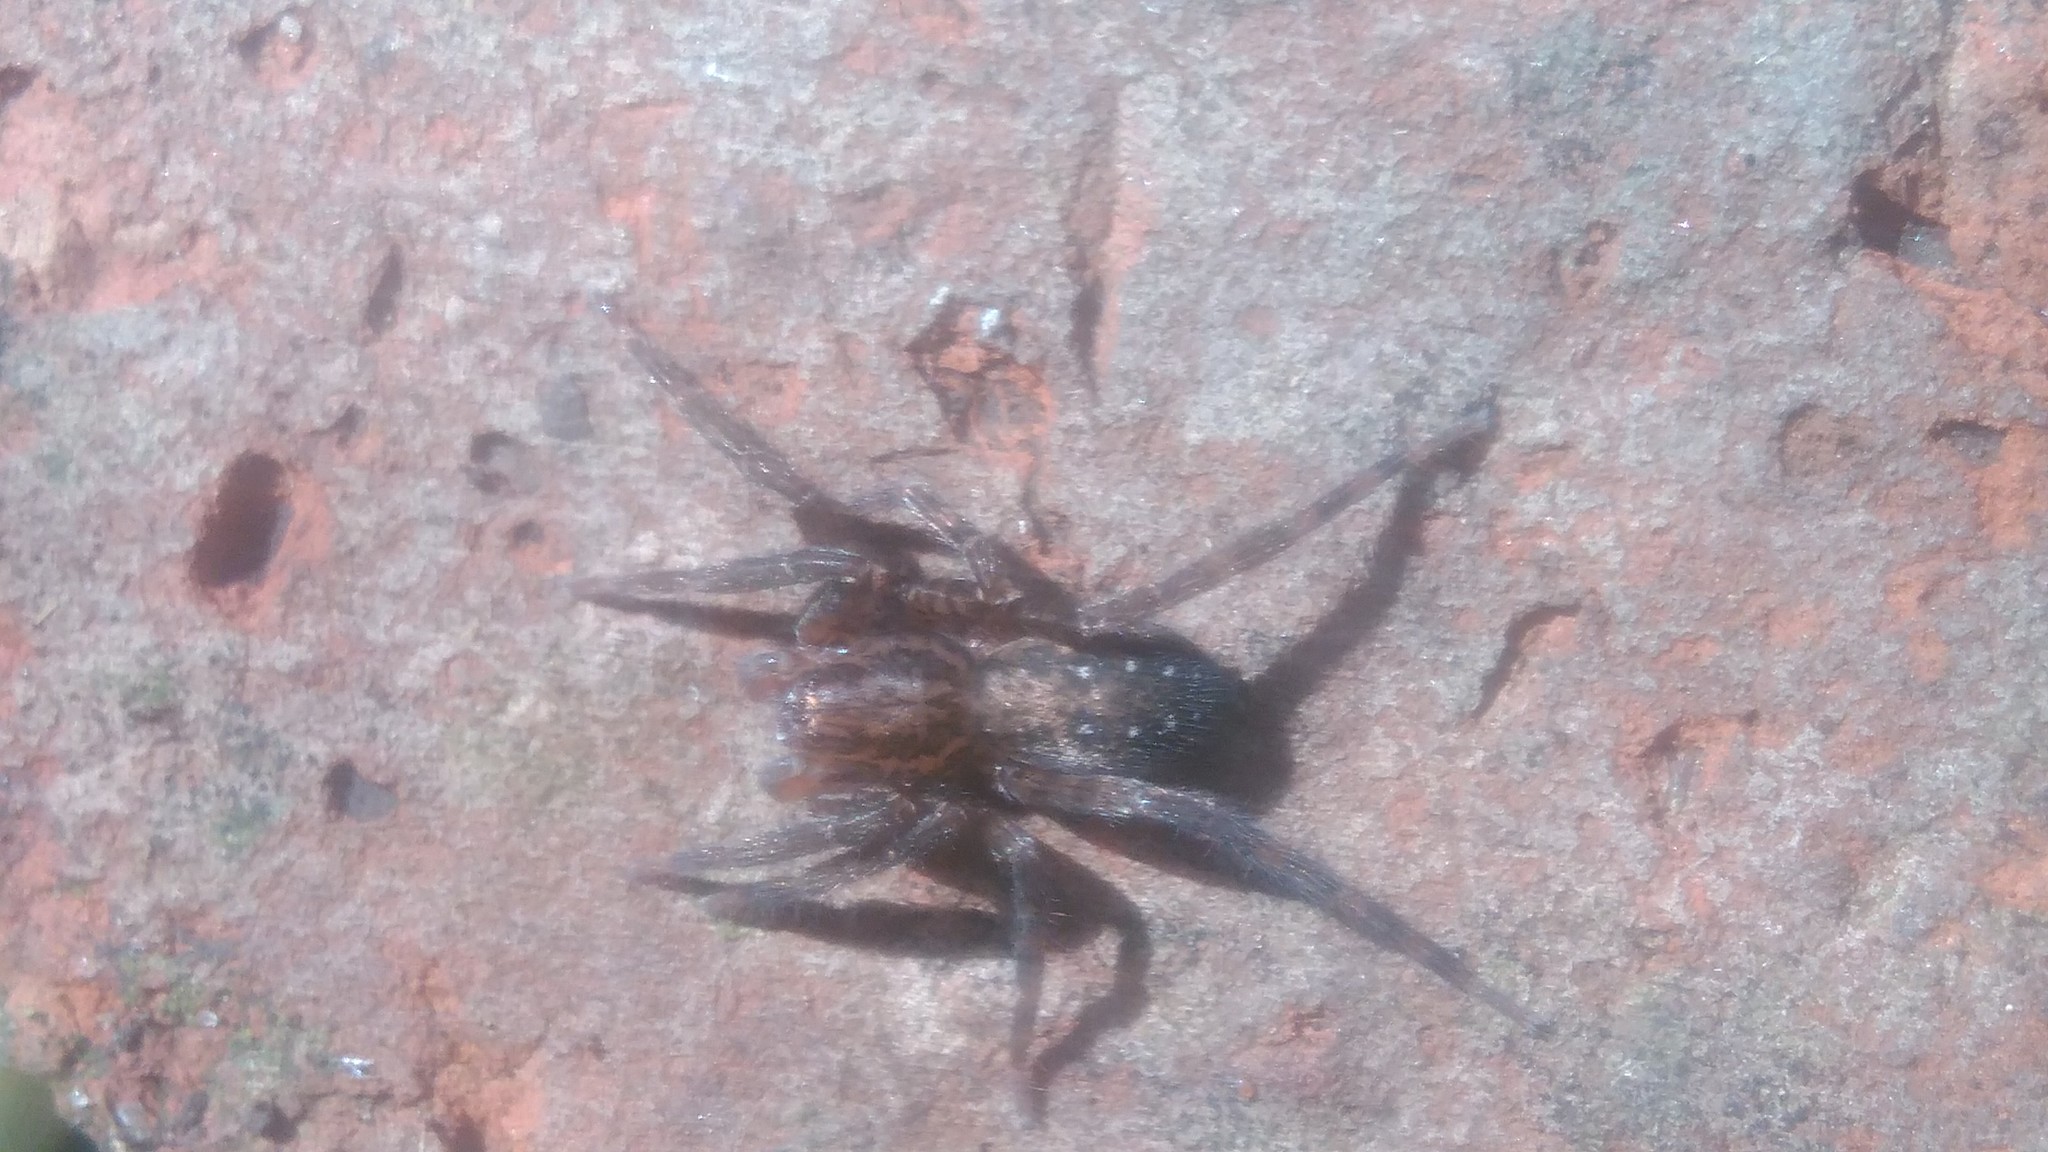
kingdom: Animalia
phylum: Arthropoda
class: Arachnida
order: Araneae
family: Ctenidae
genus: Asthenoctenus
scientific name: Asthenoctenus borellii
